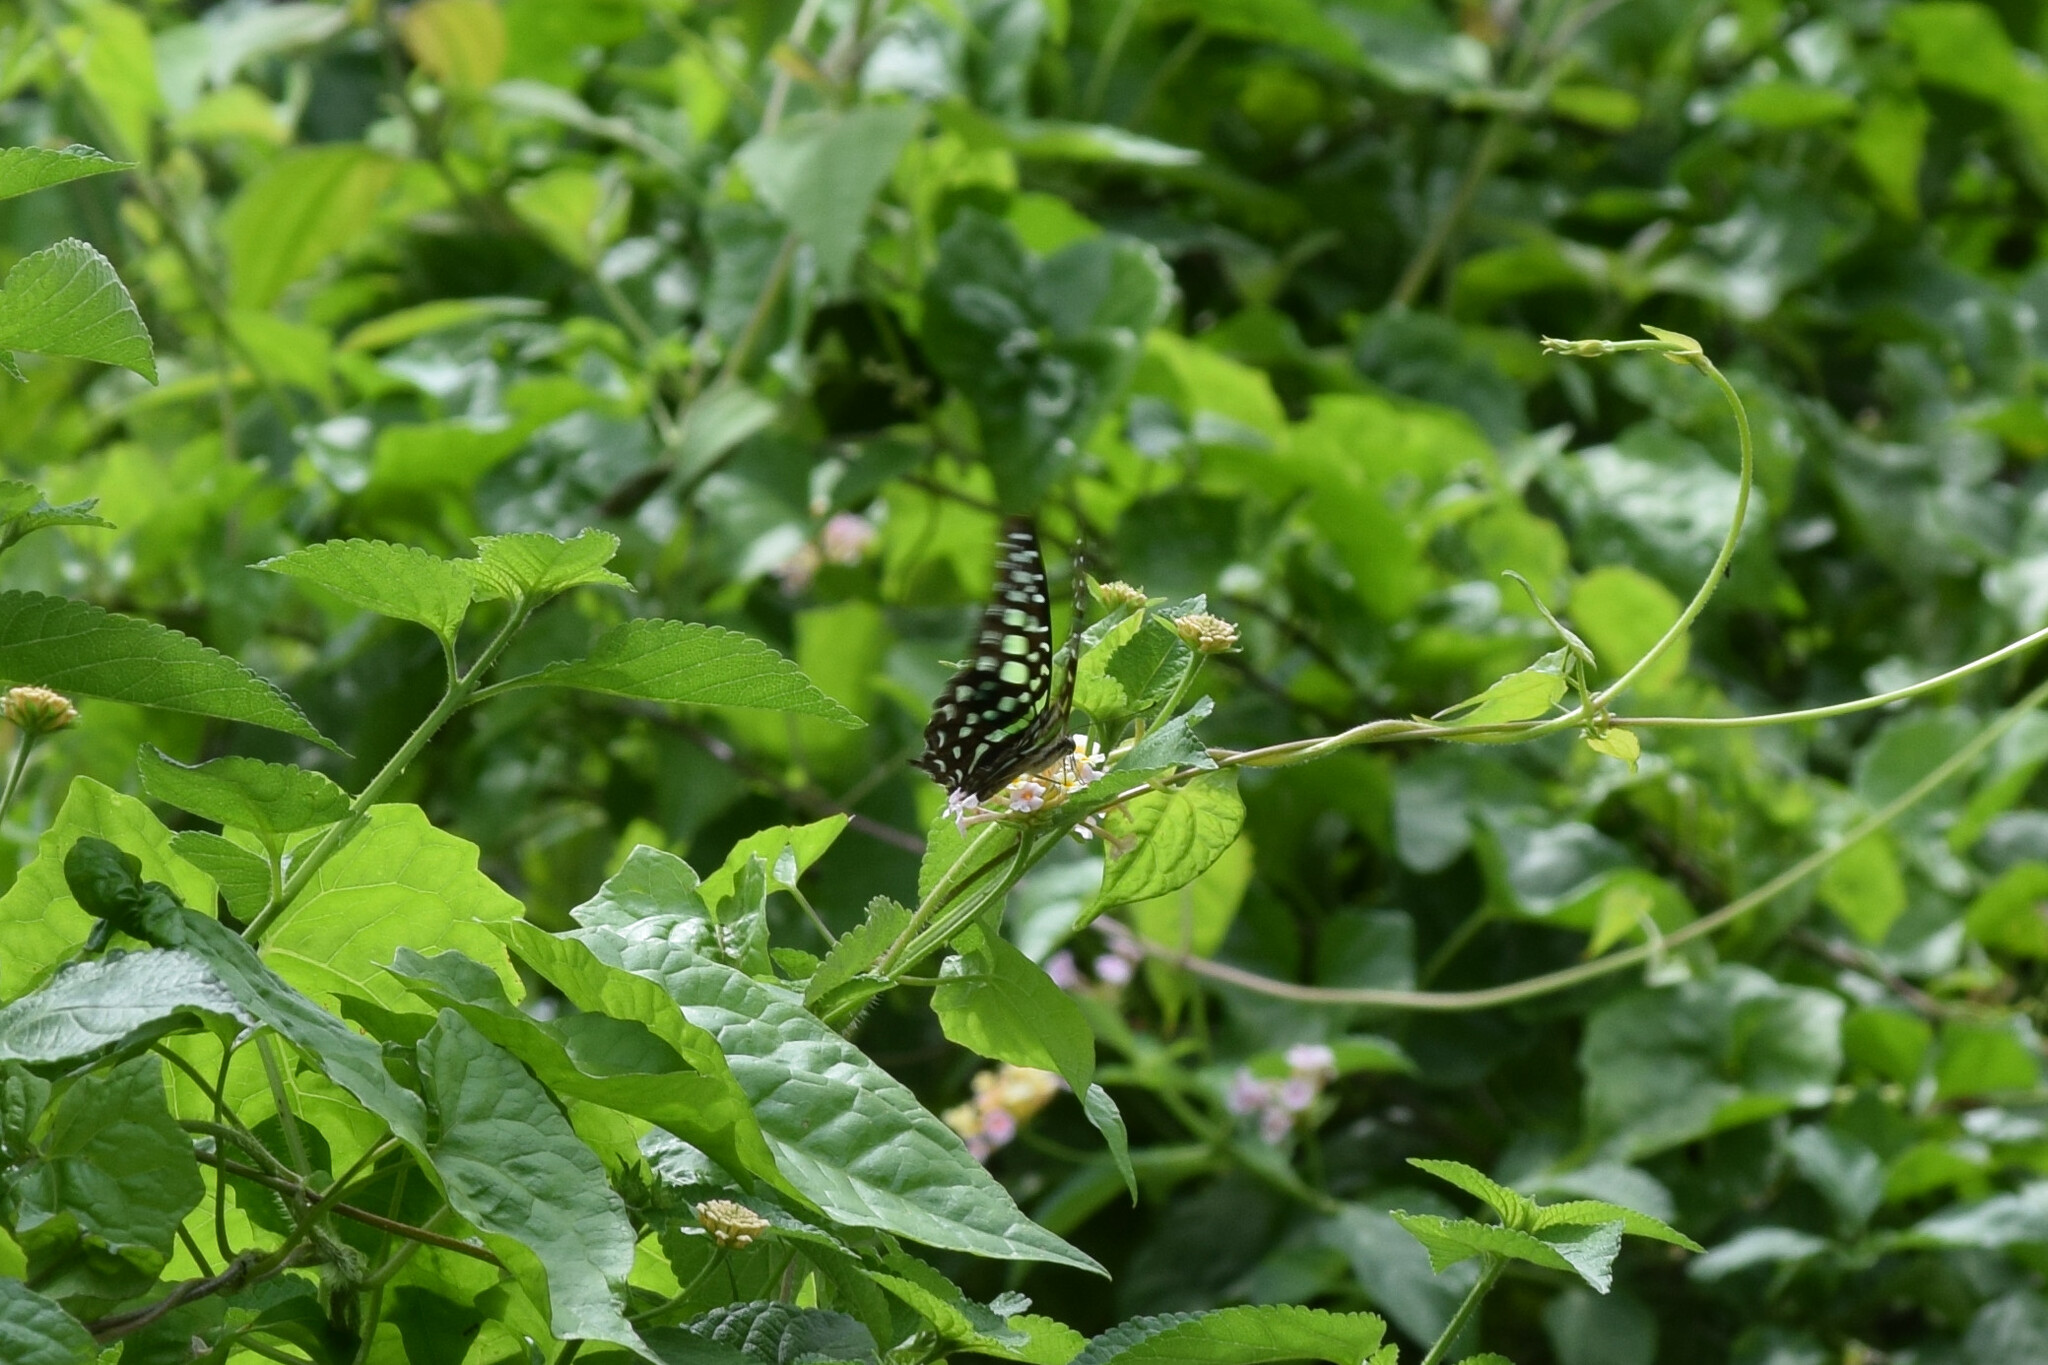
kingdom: Animalia
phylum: Arthropoda
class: Insecta
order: Lepidoptera
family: Papilionidae
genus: Graphium
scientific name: Graphium agamemnon
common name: Tailed jay
